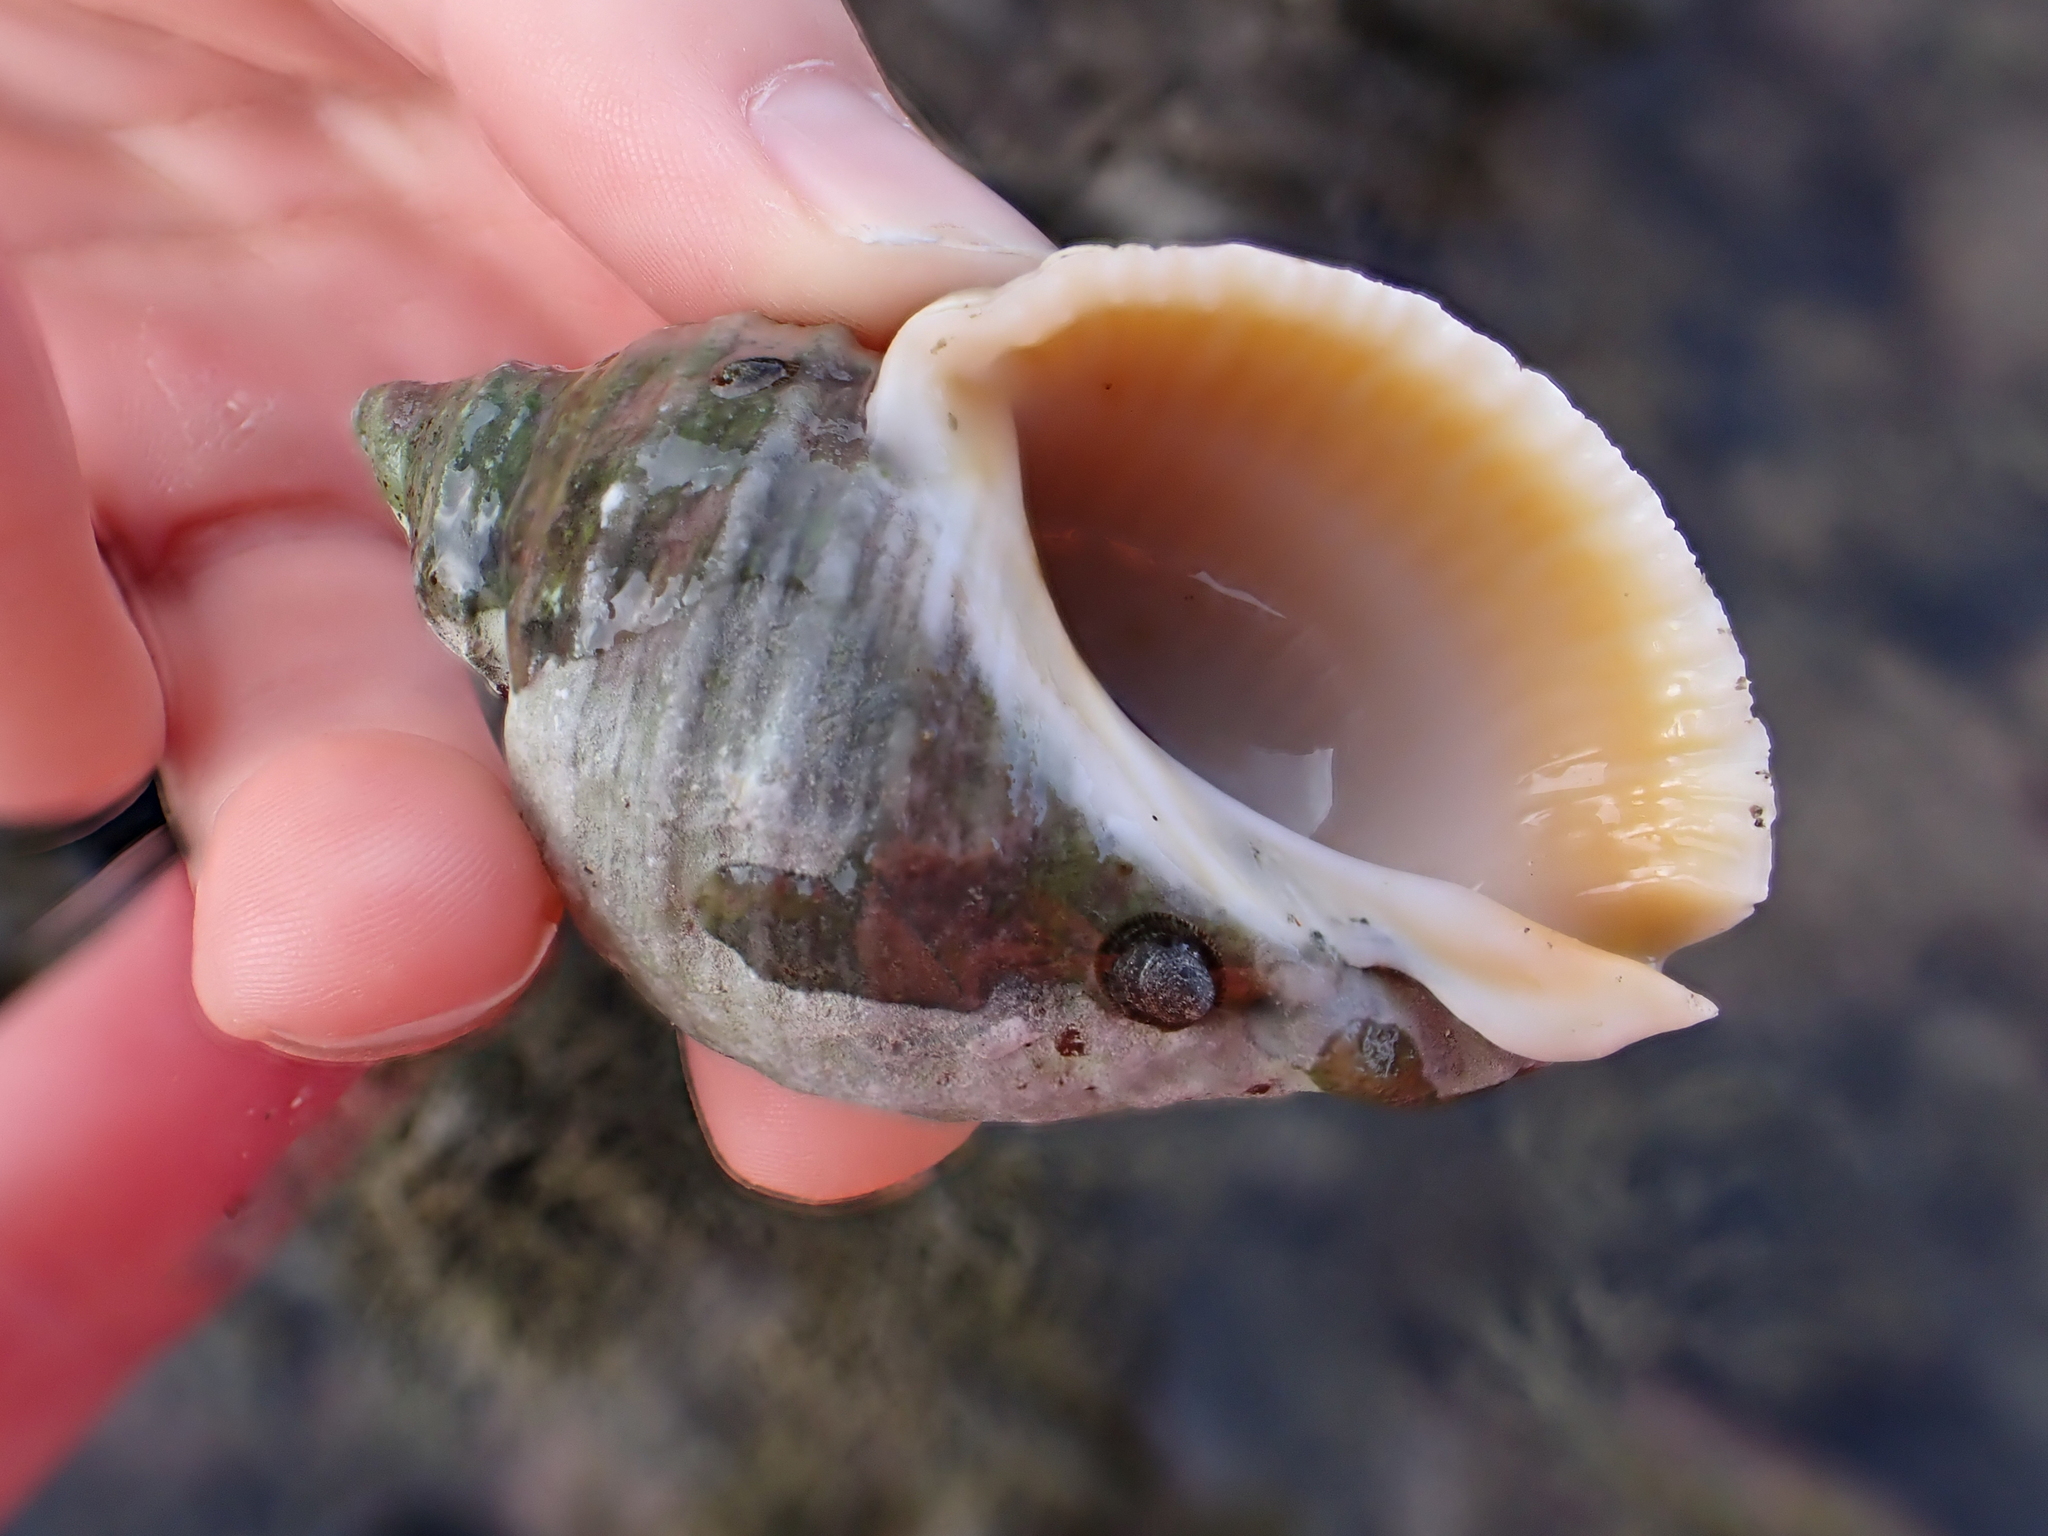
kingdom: Animalia
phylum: Mollusca
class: Gastropoda
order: Neogastropoda
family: Muricidae
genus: Dicathais
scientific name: Dicathais orbita
